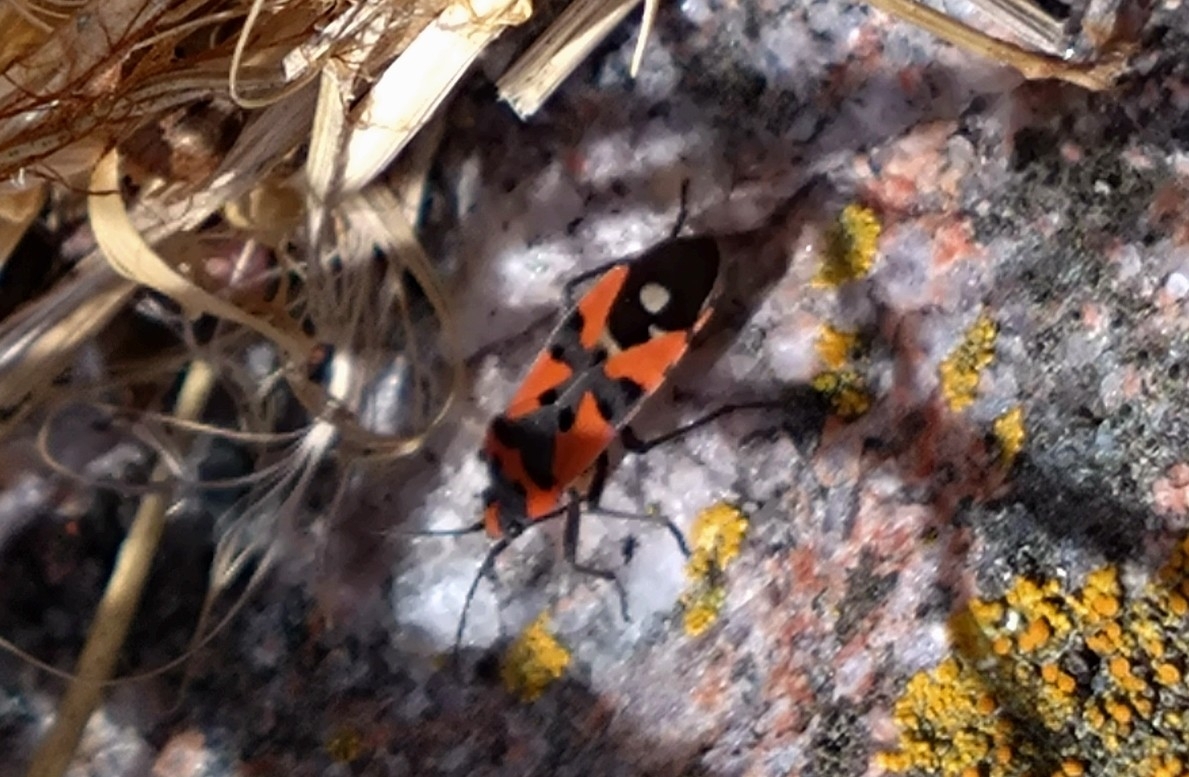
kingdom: Animalia
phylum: Arthropoda
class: Insecta
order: Hemiptera
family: Lygaeidae
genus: Lygaeus
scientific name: Lygaeus equestris
